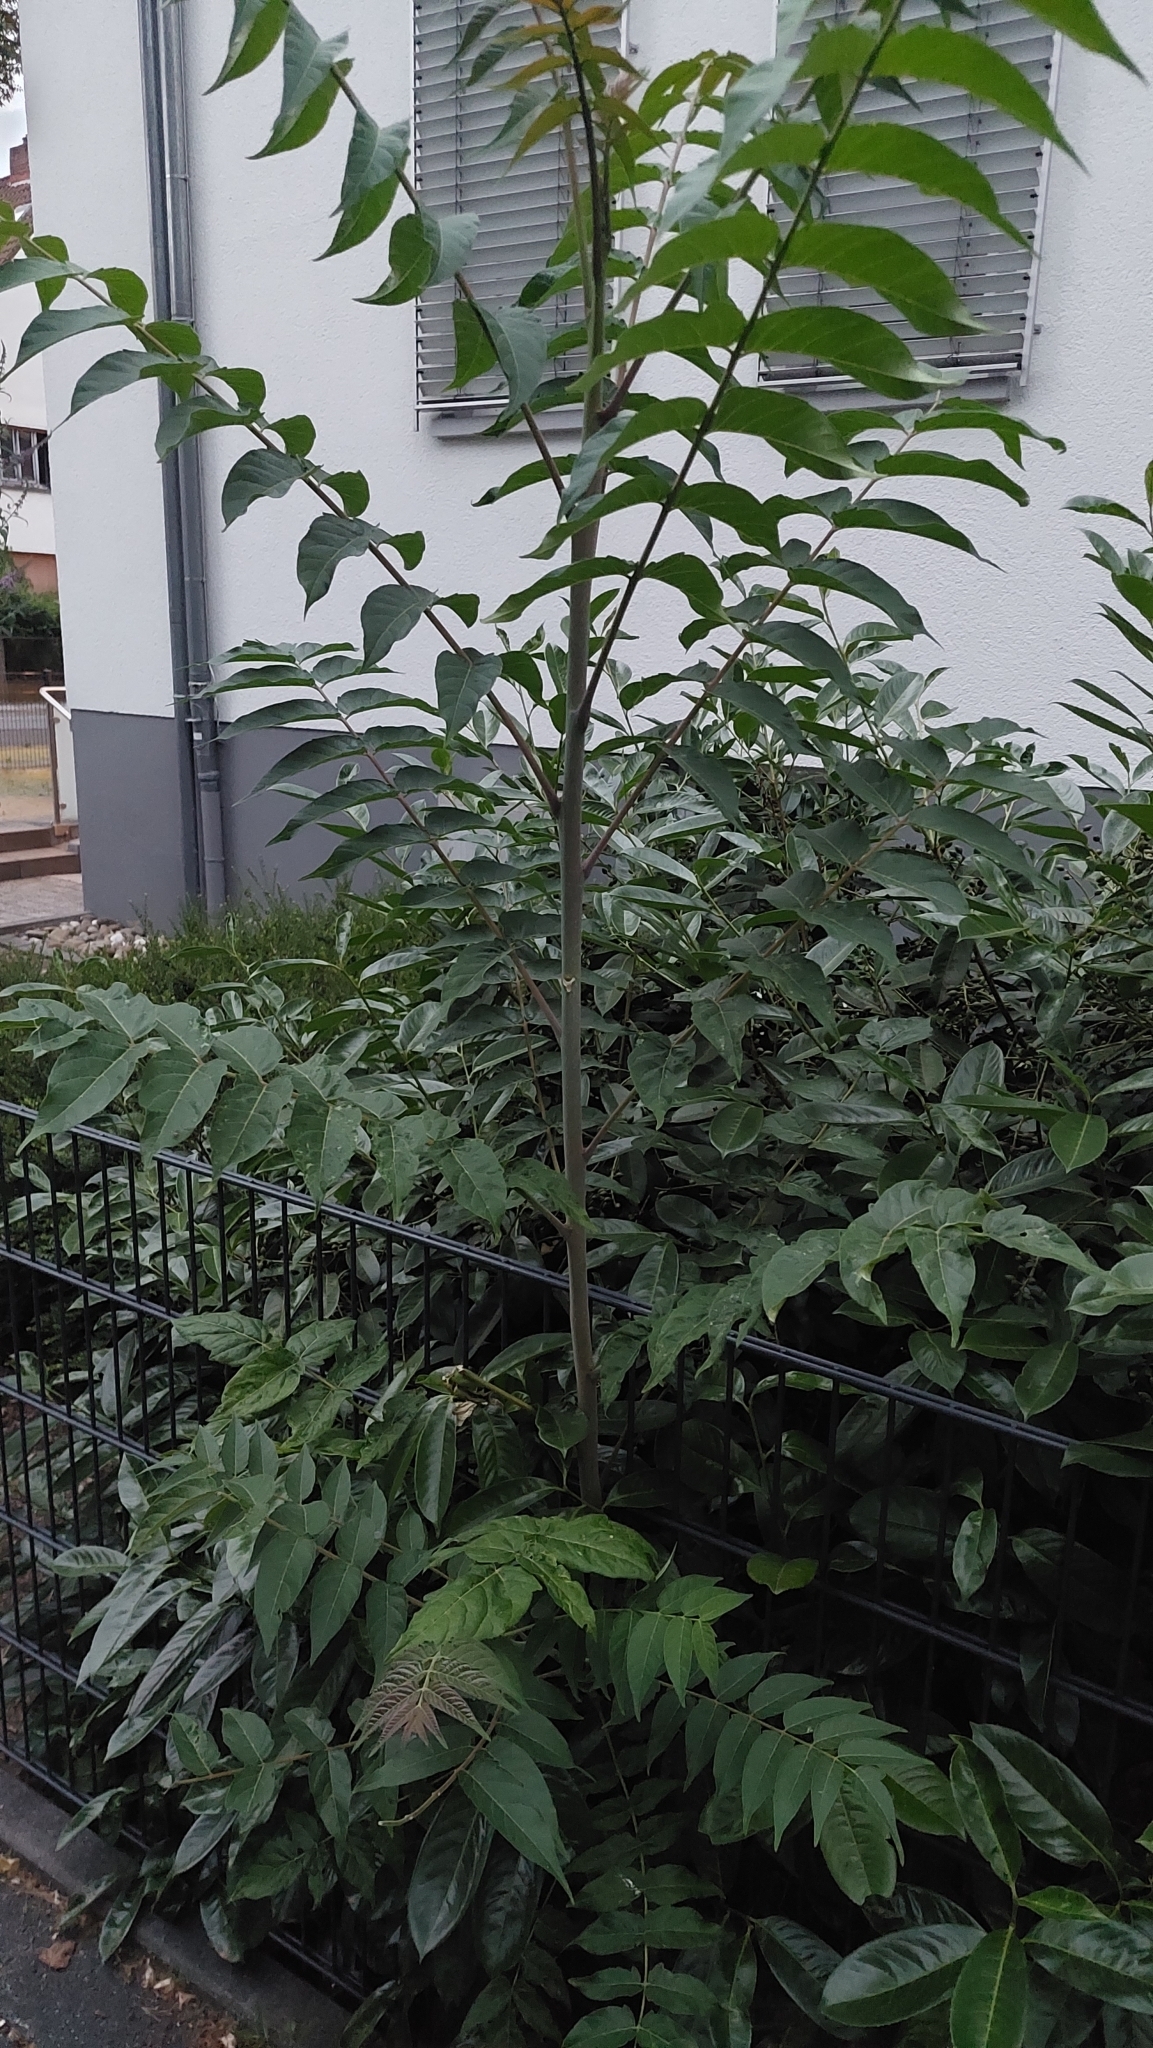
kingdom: Plantae
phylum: Tracheophyta
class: Magnoliopsida
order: Sapindales
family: Simaroubaceae
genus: Ailanthus
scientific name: Ailanthus altissima
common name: Tree-of-heaven
